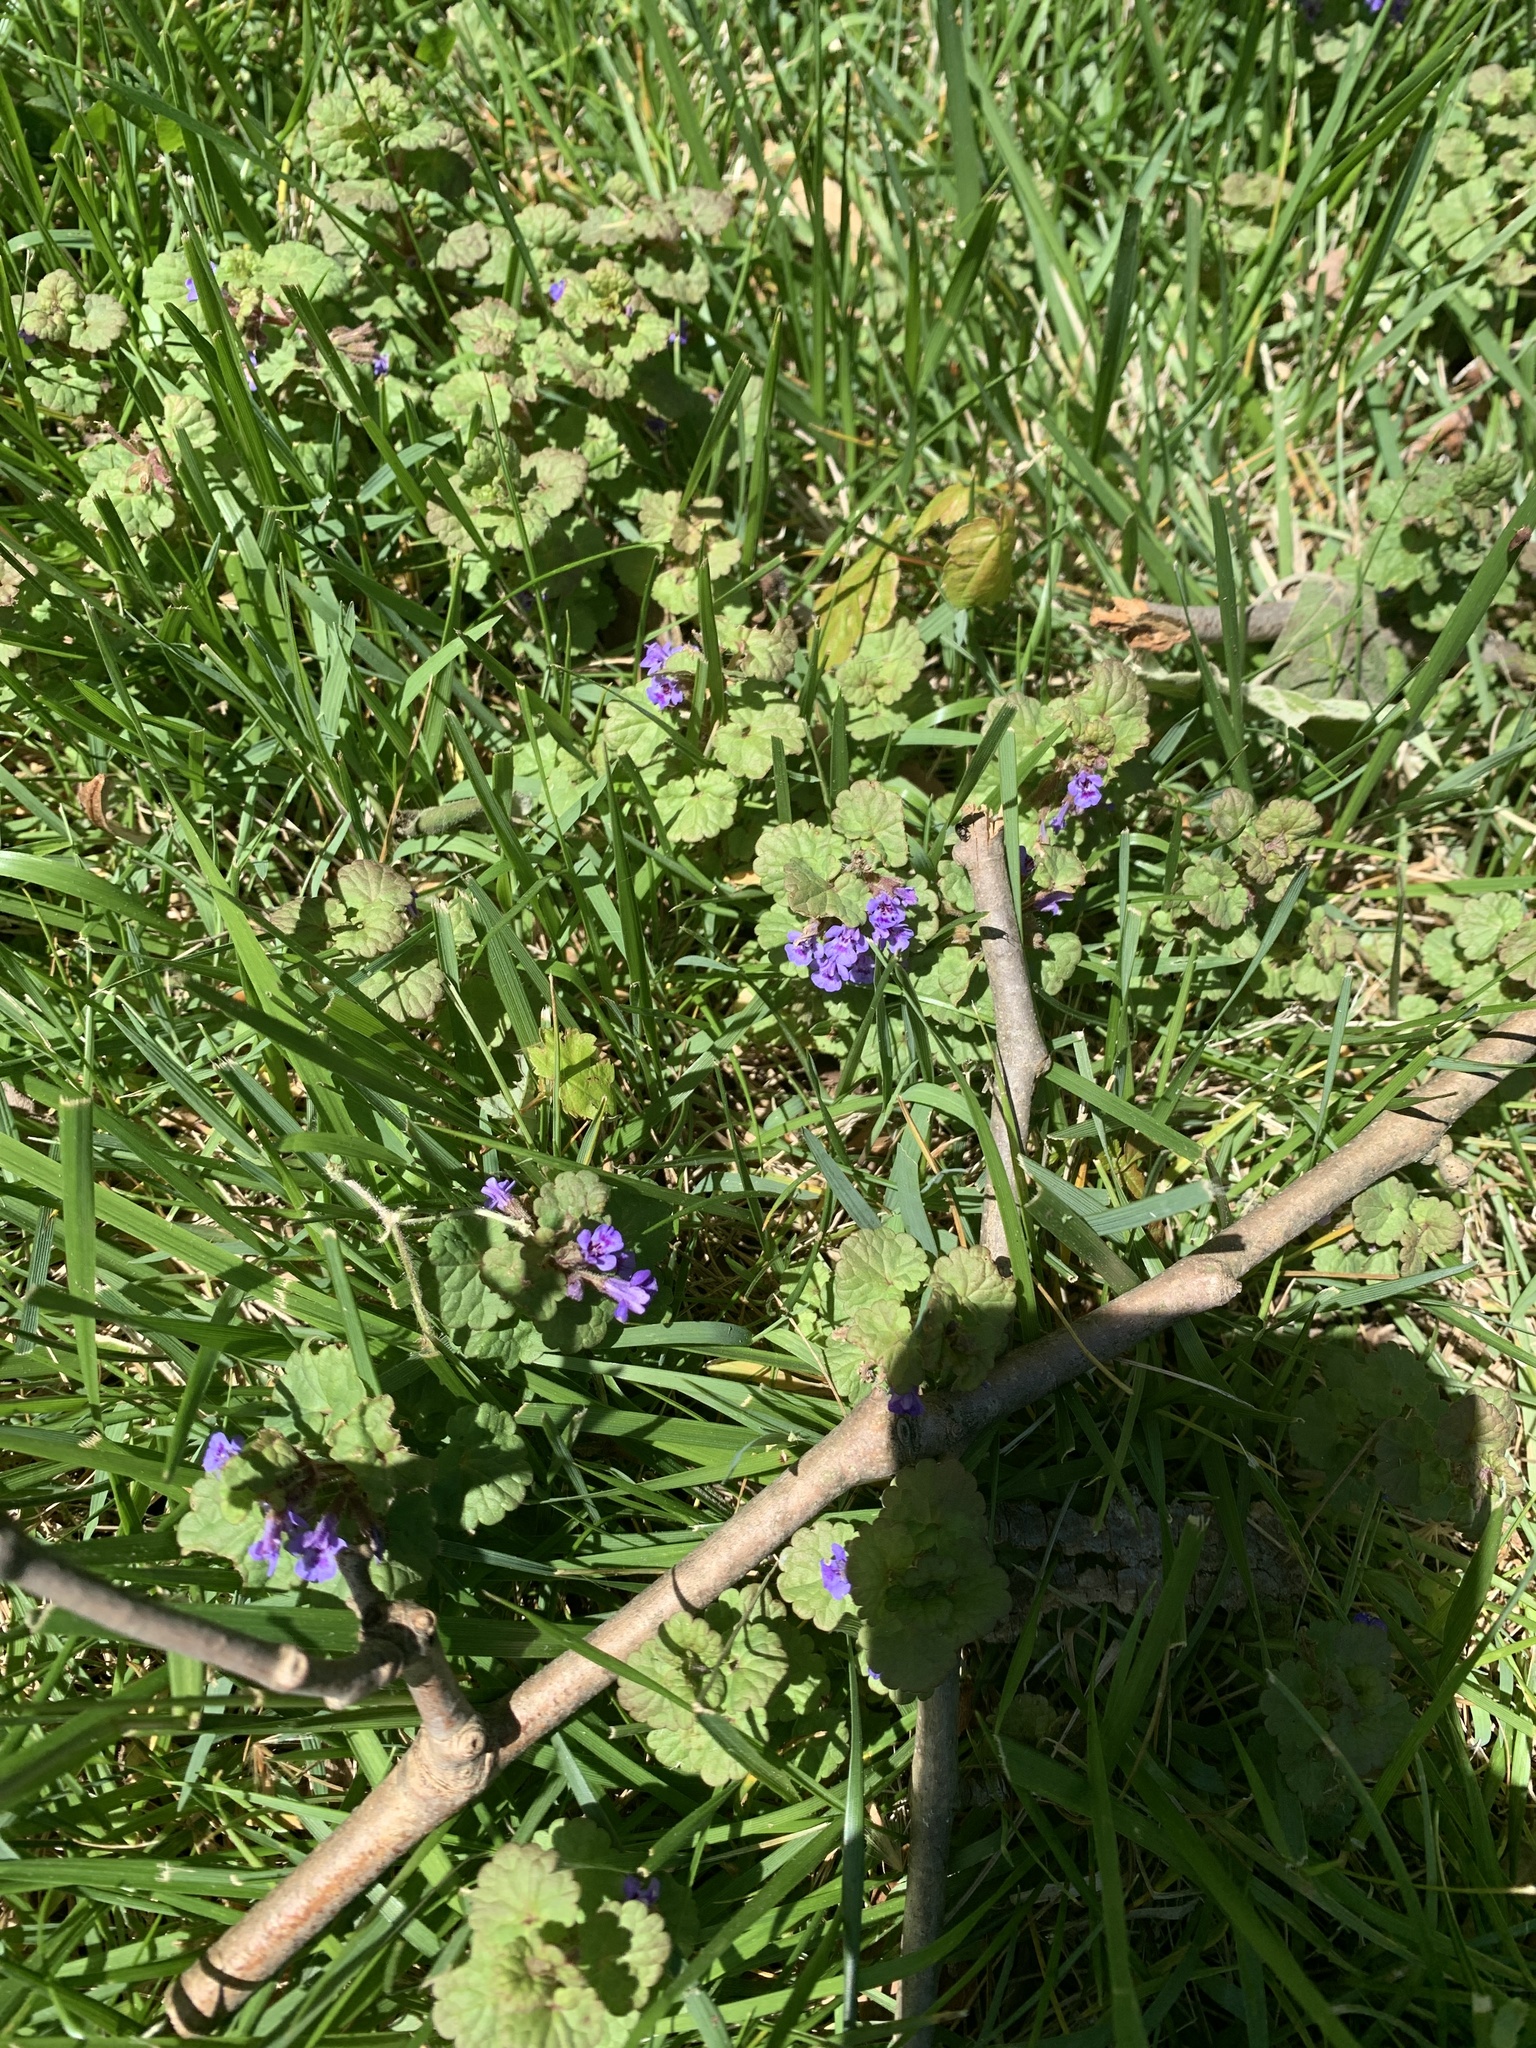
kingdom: Plantae
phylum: Tracheophyta
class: Magnoliopsida
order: Lamiales
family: Lamiaceae
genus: Glechoma
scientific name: Glechoma hederacea
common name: Ground ivy
